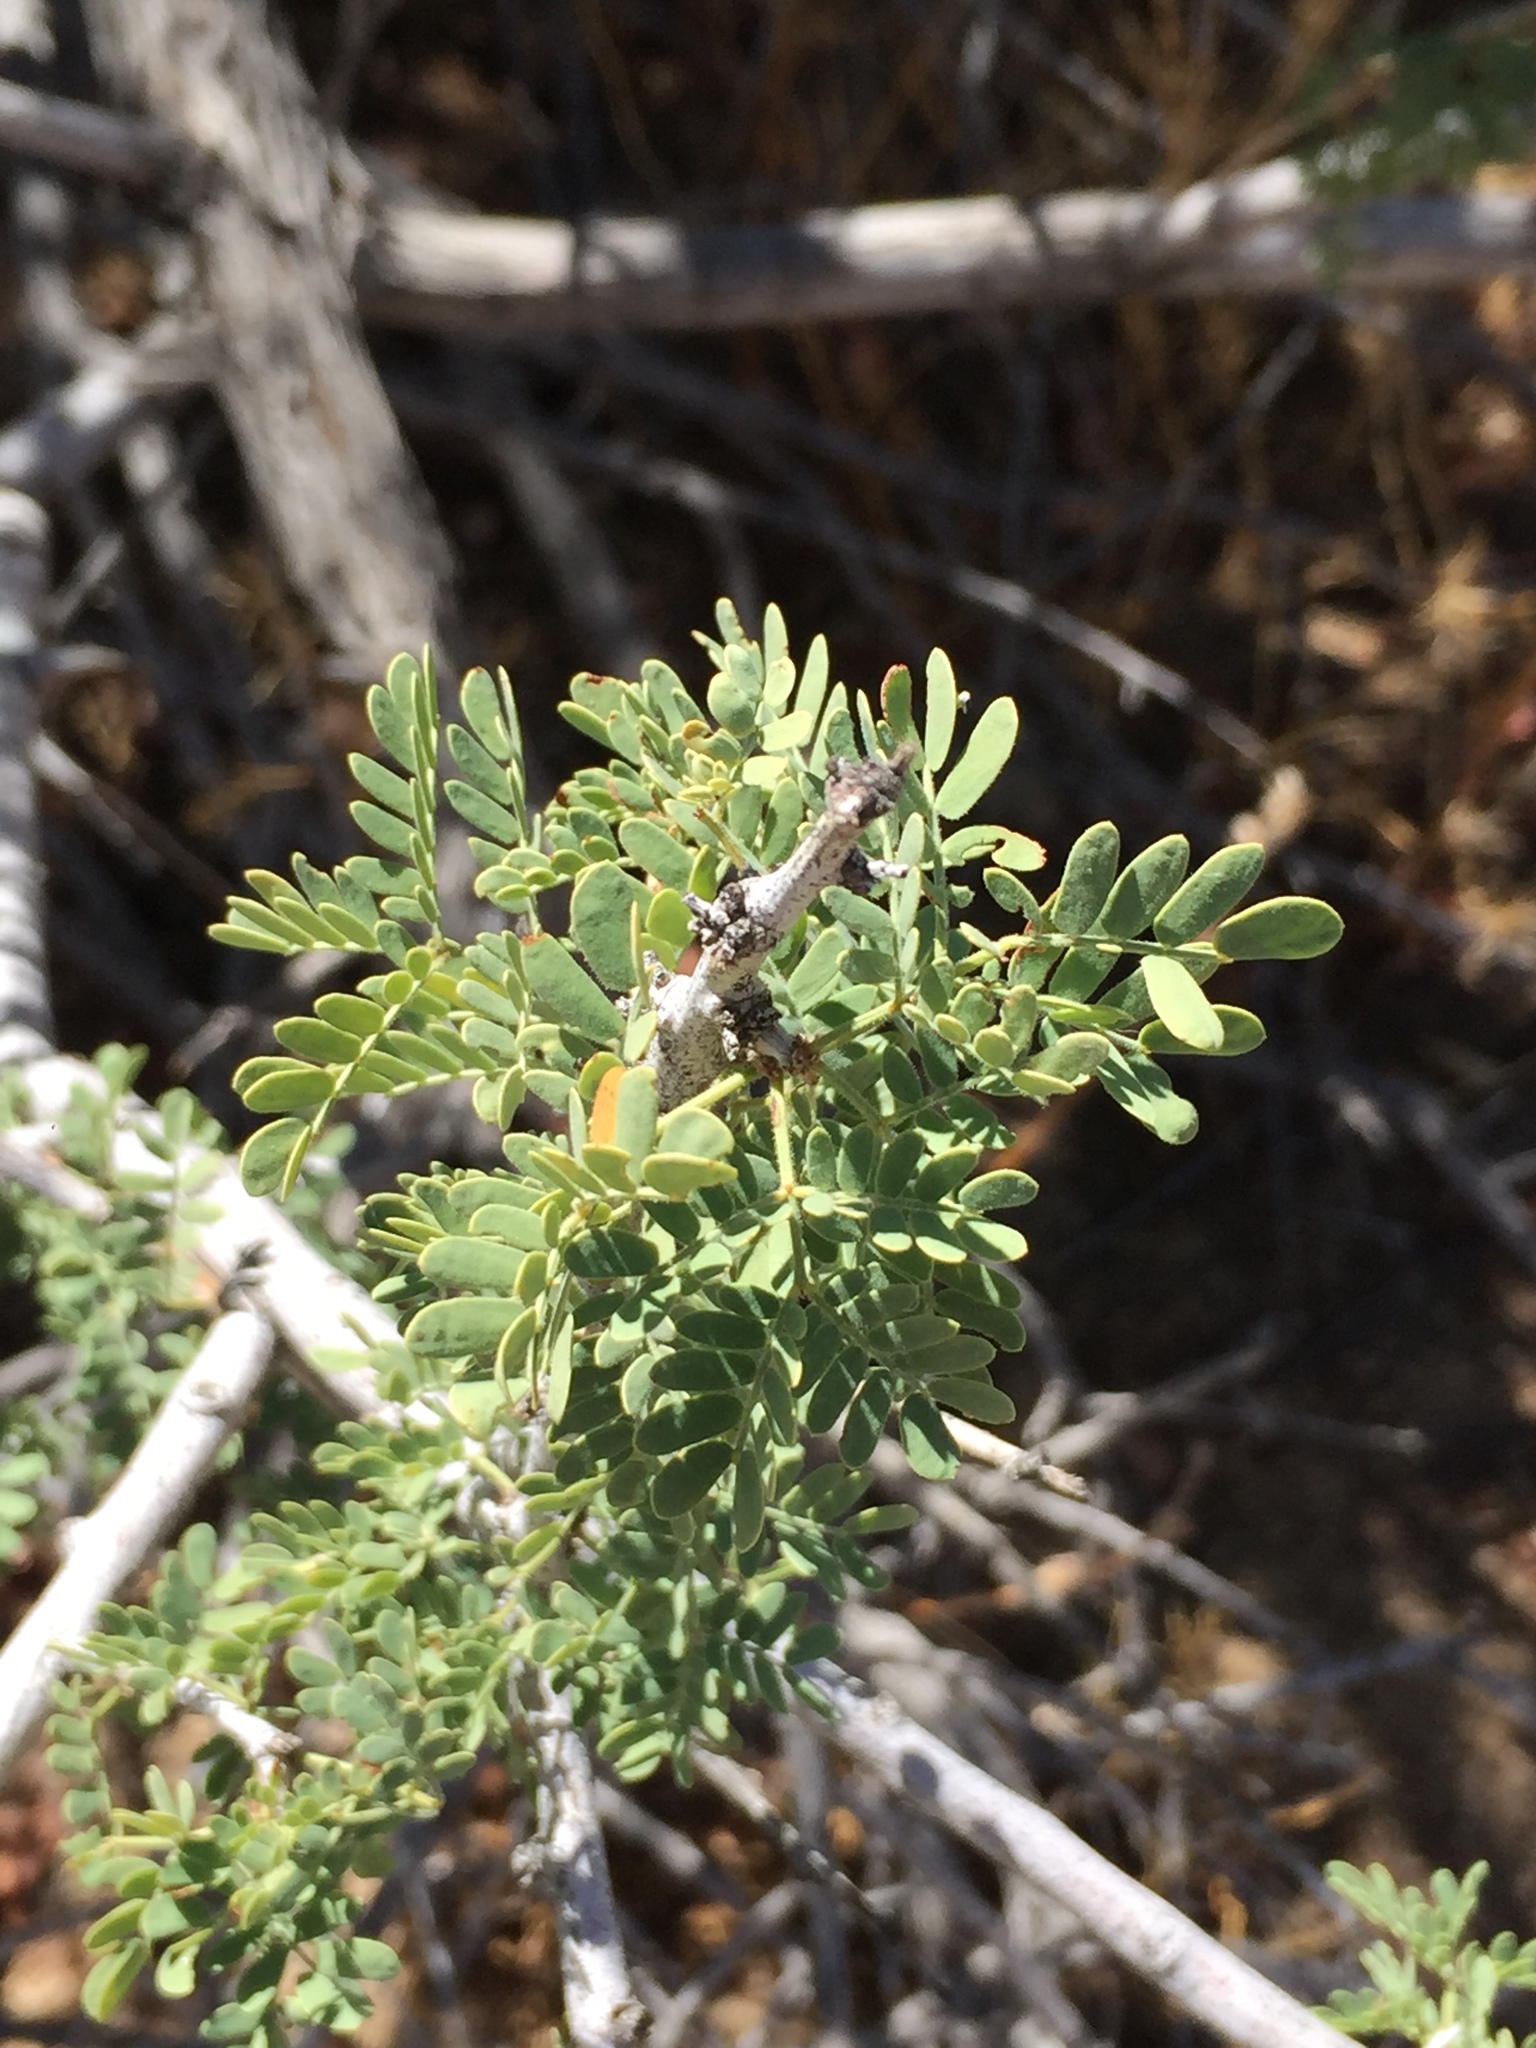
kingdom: Plantae
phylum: Tracheophyta
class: Magnoliopsida
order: Fabales
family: Fabaceae
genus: Senegalia
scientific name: Senegalia greggii
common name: Texas-mimosa
